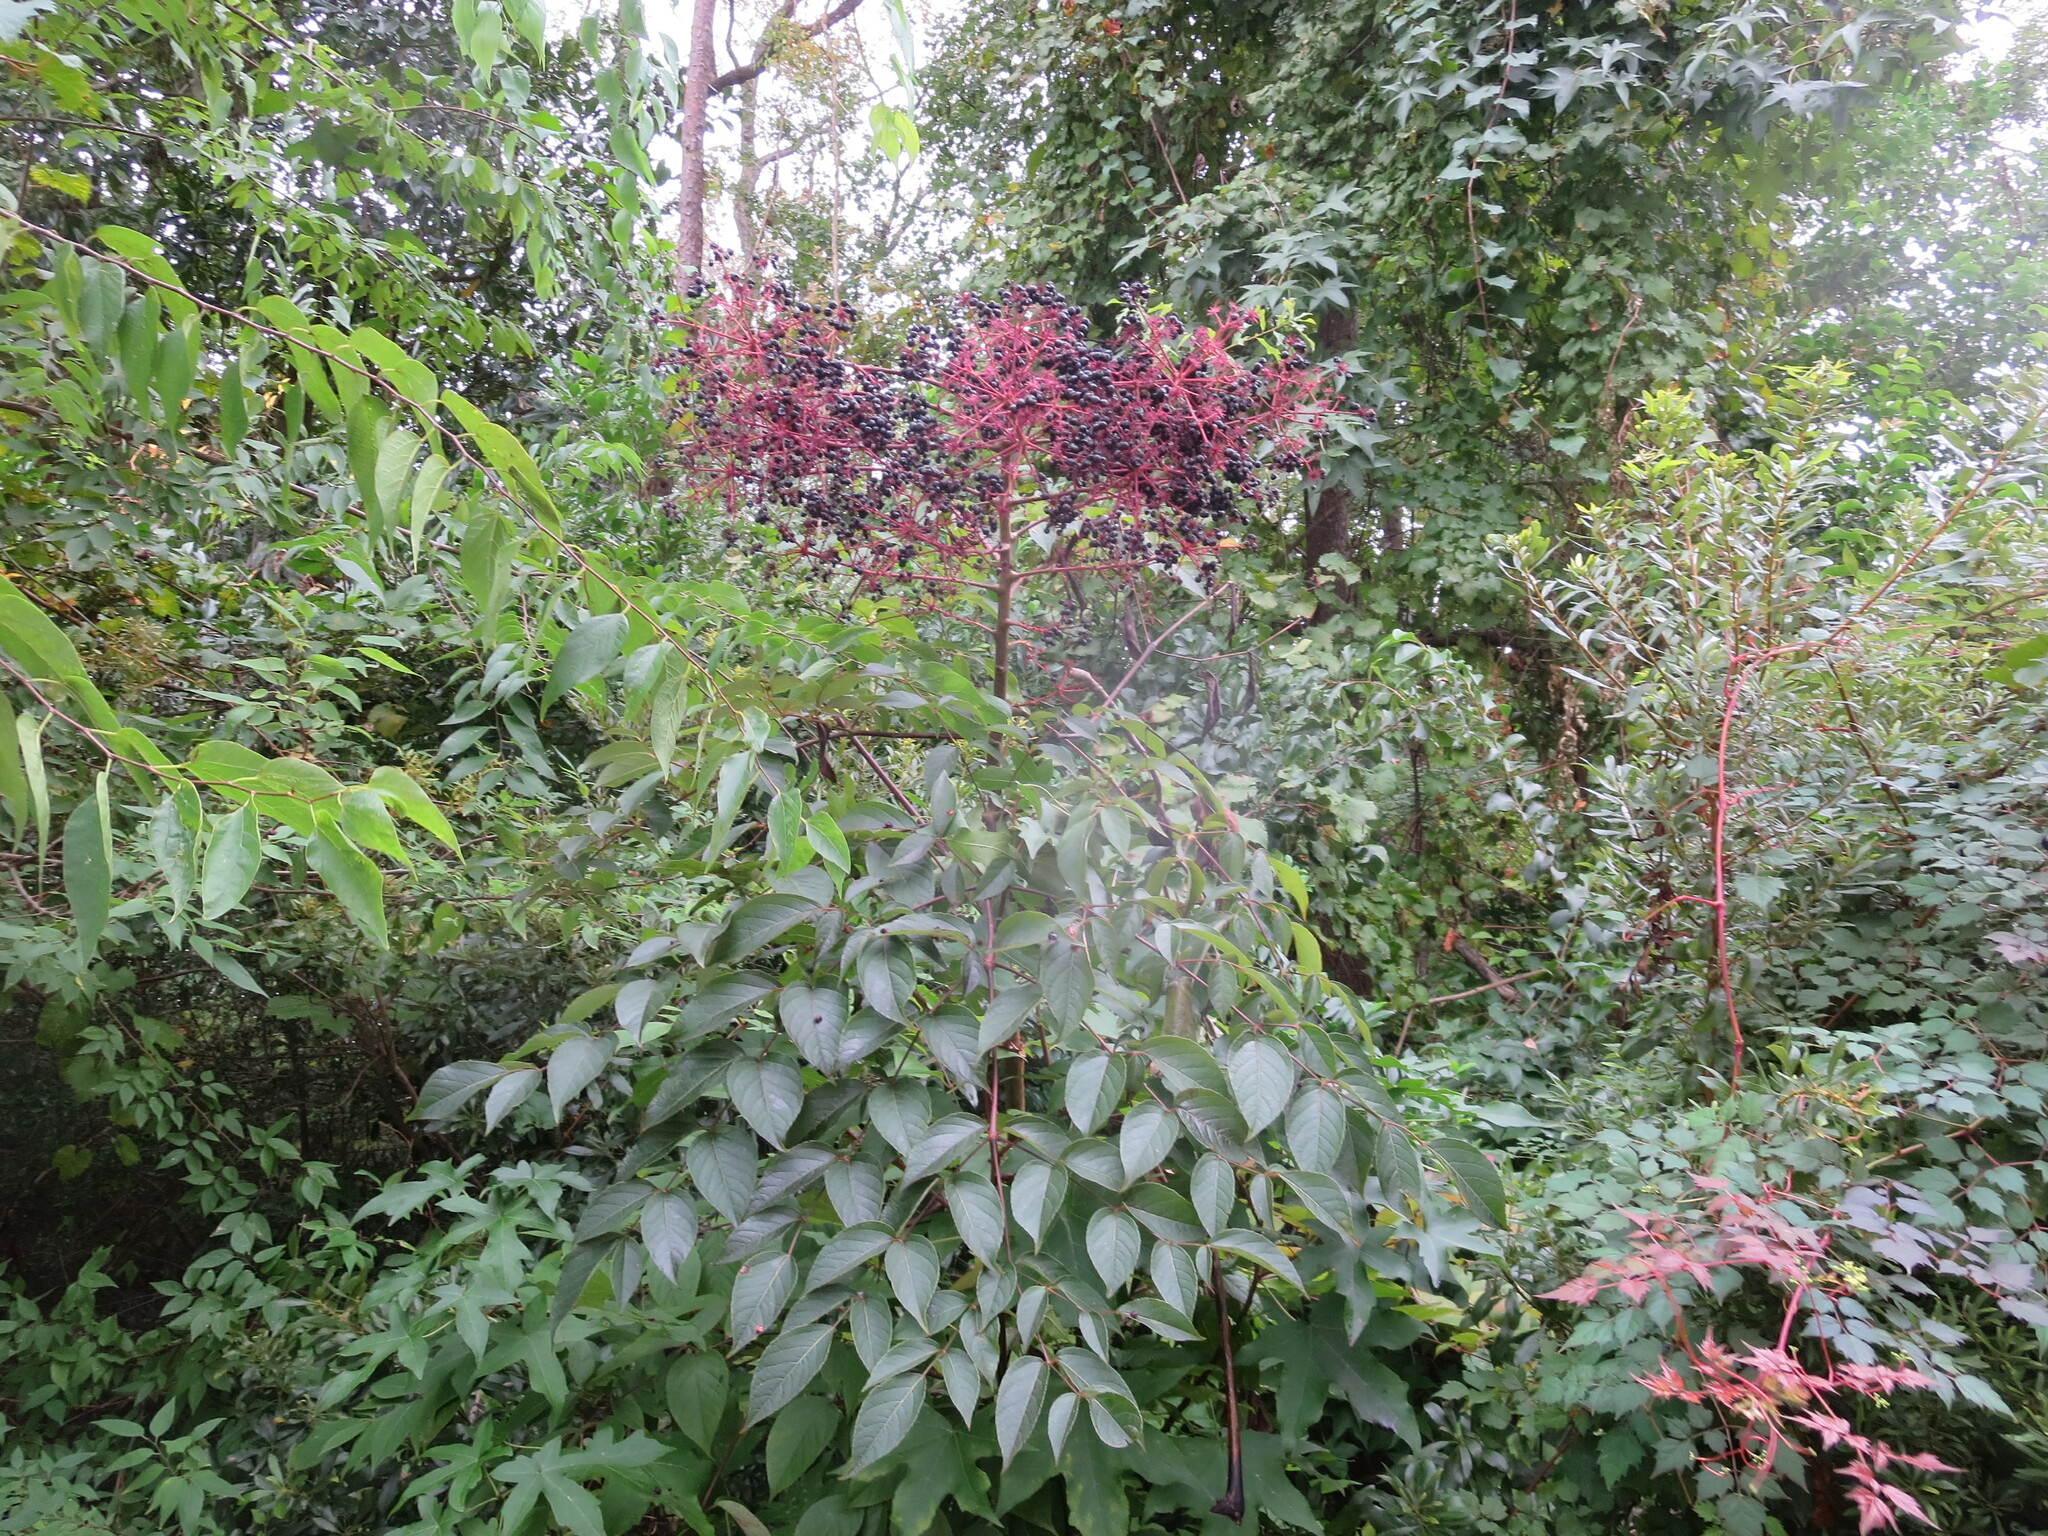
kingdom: Plantae
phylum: Tracheophyta
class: Magnoliopsida
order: Apiales
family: Araliaceae
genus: Aralia
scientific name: Aralia spinosa
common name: Hercules'-club
